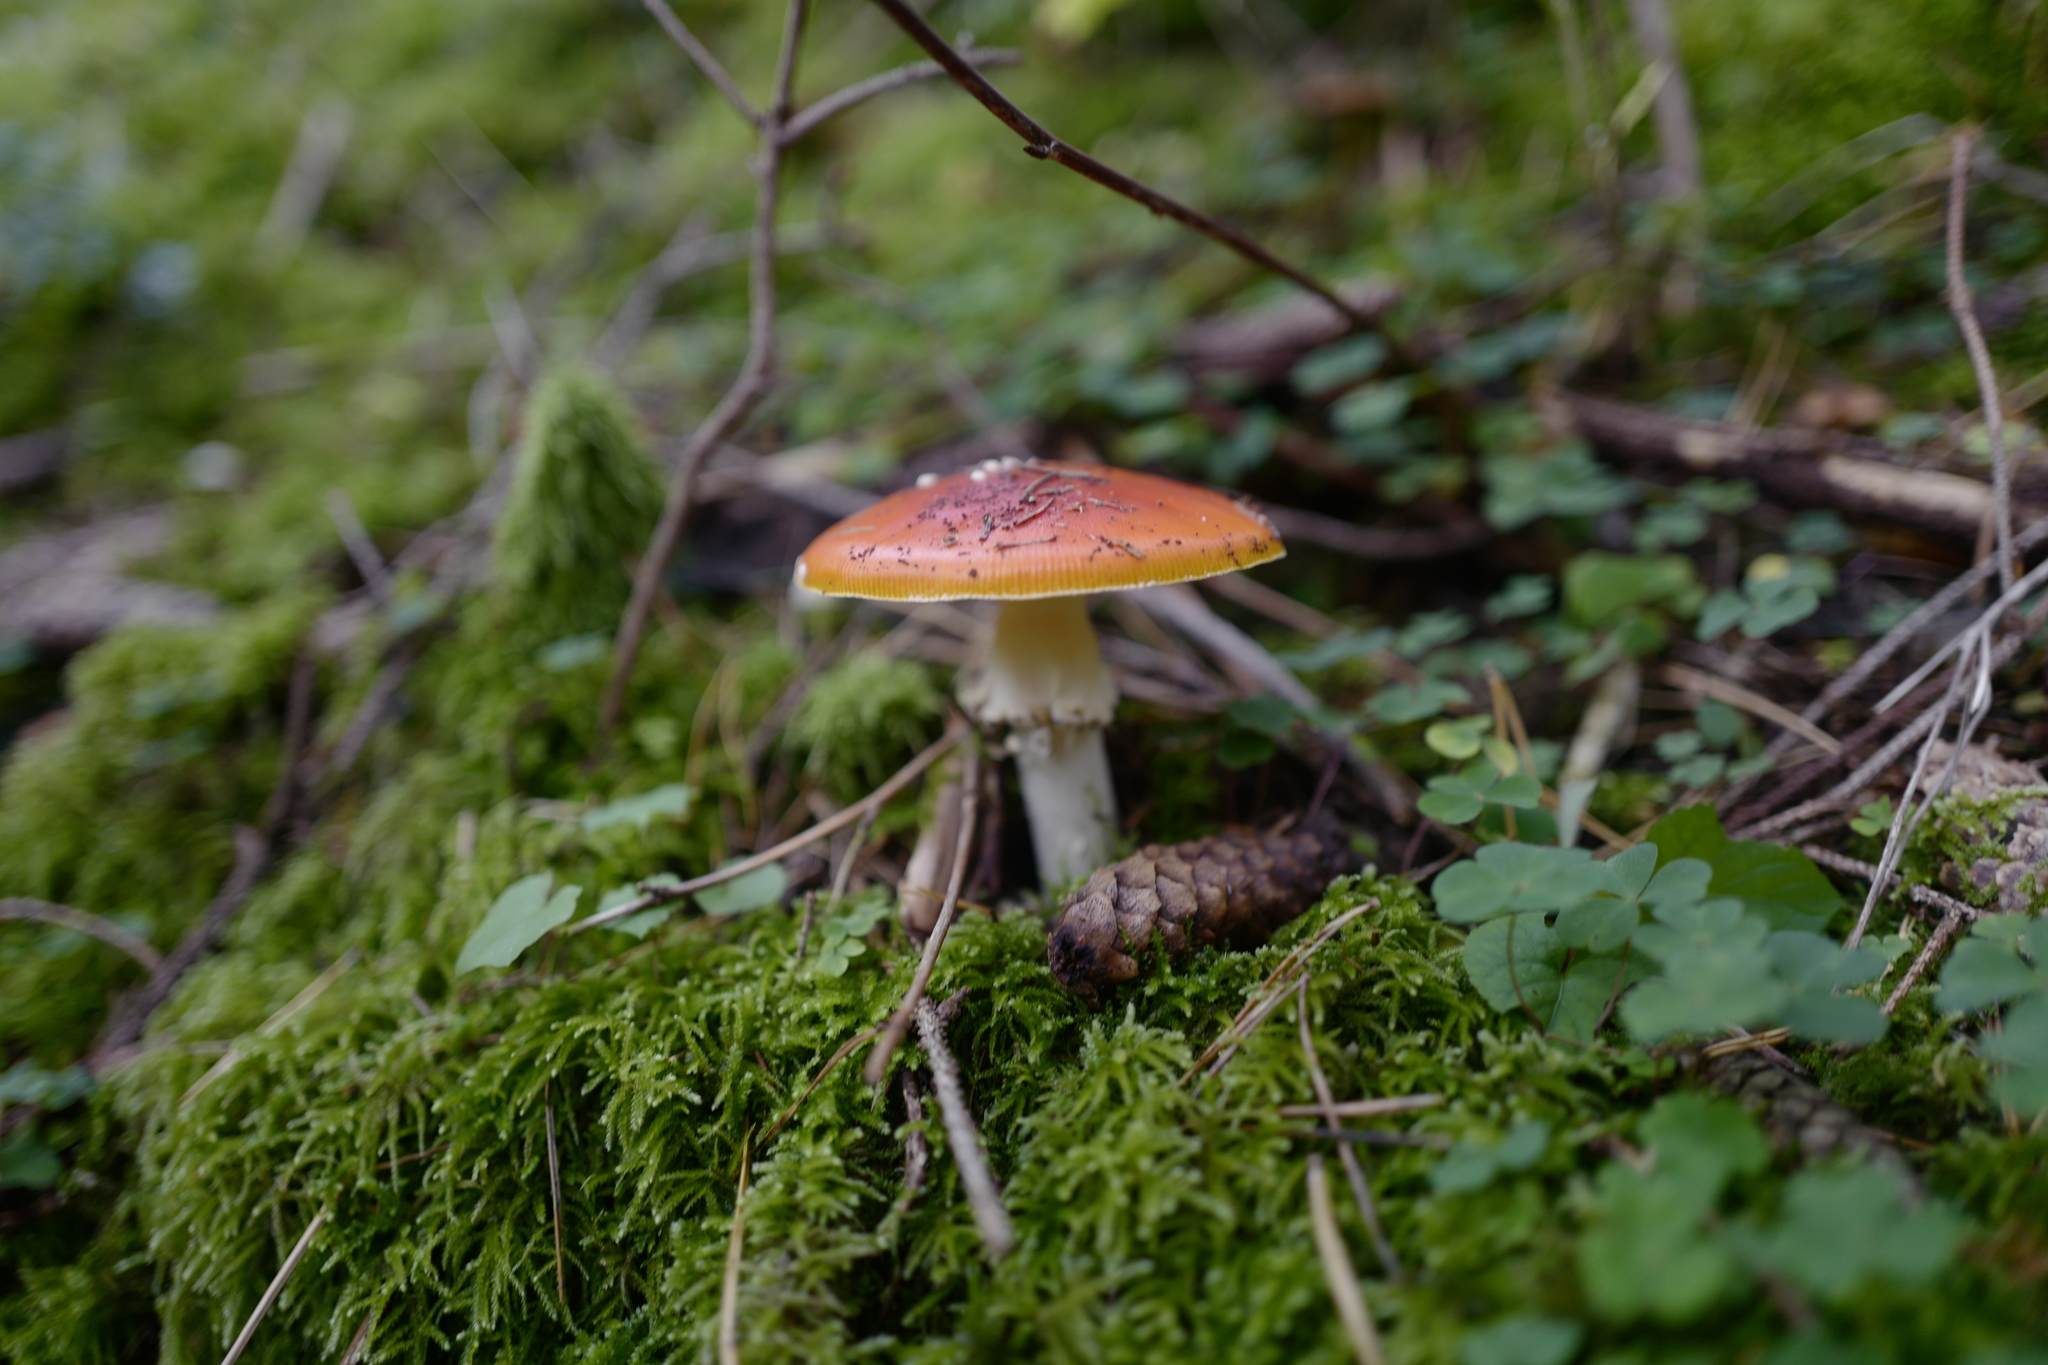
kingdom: Fungi
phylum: Basidiomycota
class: Agaricomycetes
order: Agaricales
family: Amanitaceae
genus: Amanita
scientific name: Amanita muscaria
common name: Fly agaric
